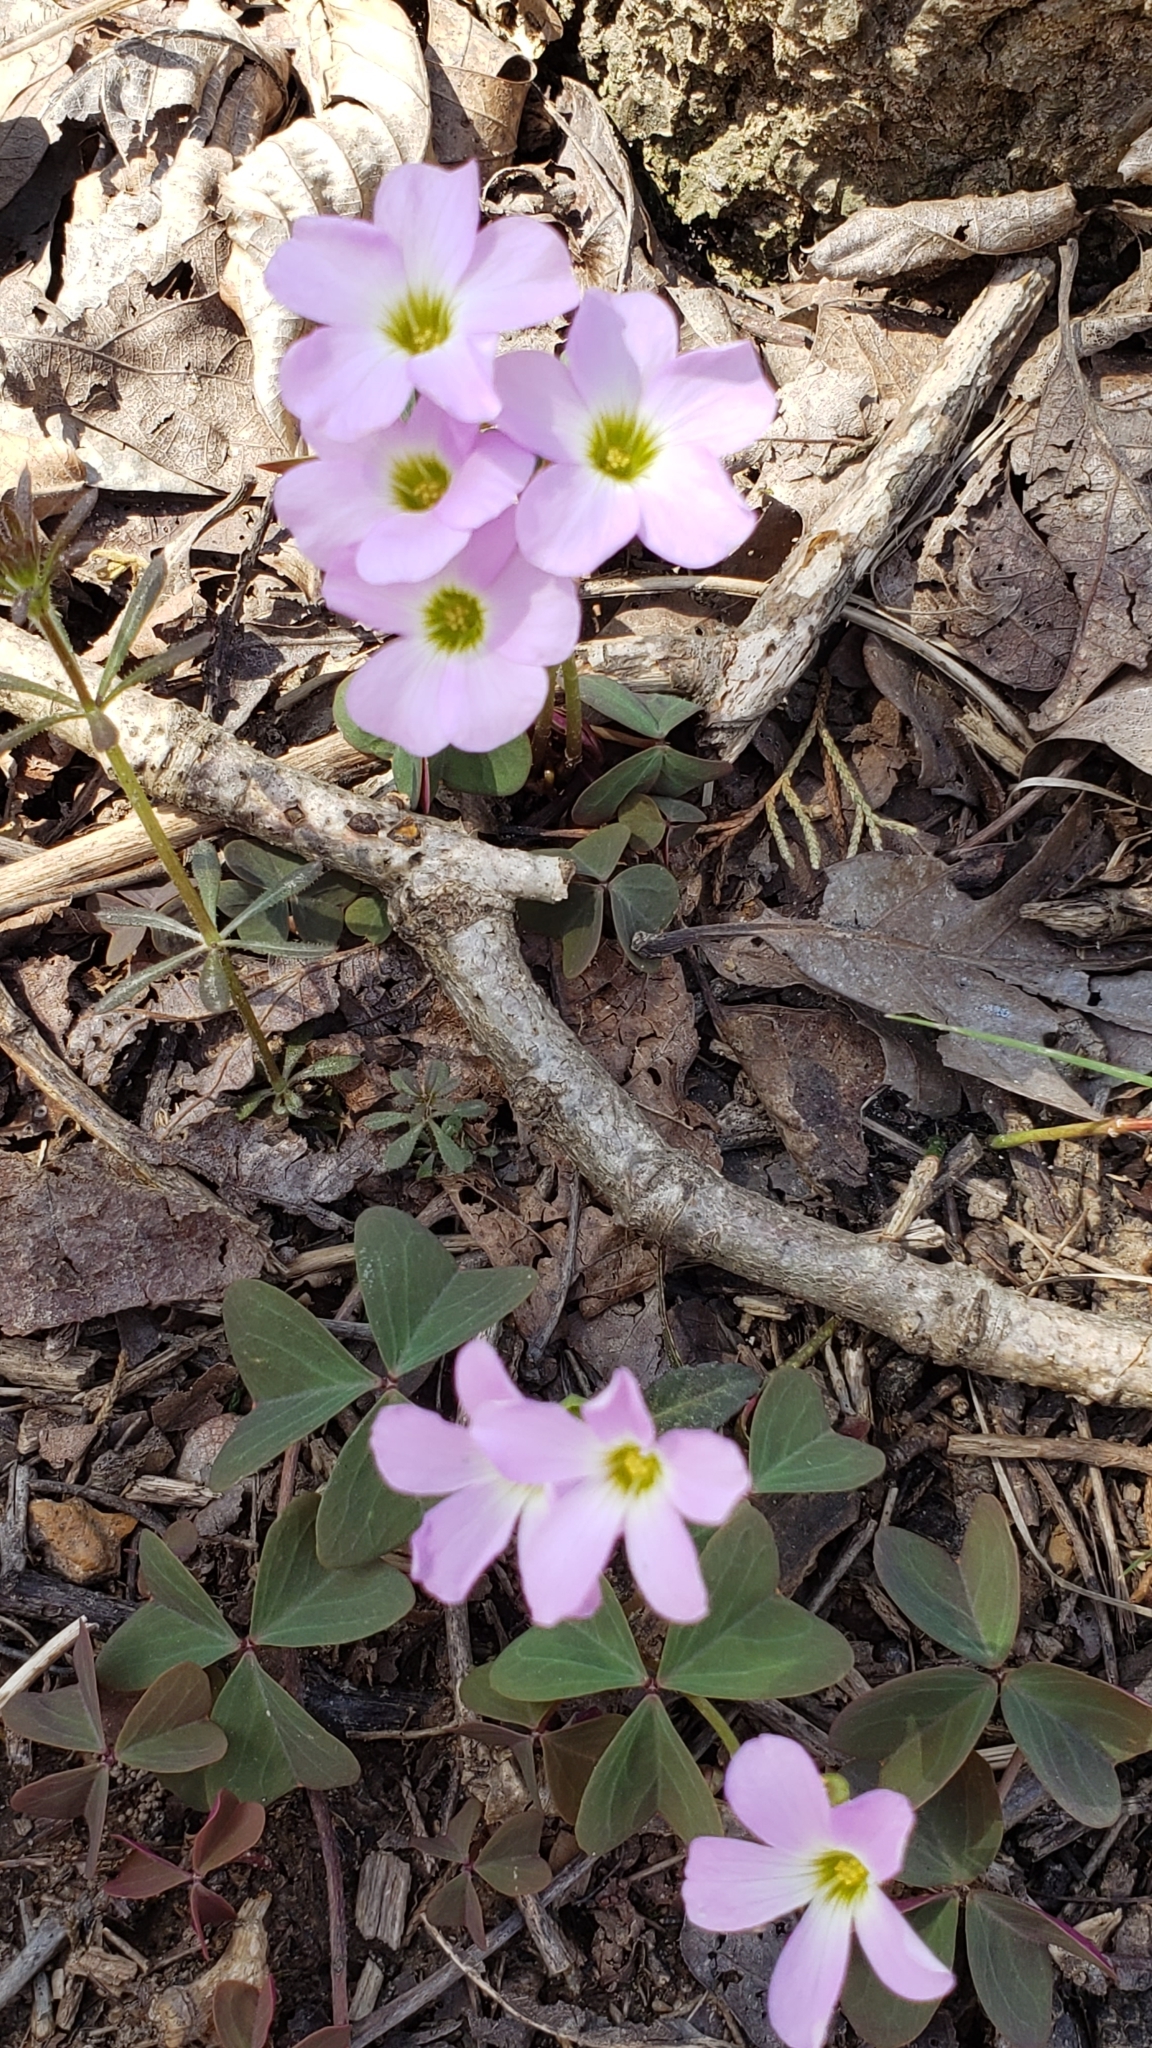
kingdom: Plantae
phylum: Tracheophyta
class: Magnoliopsida
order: Oxalidales
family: Oxalidaceae
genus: Oxalis
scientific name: Oxalis violacea
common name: Violet wood-sorrel
